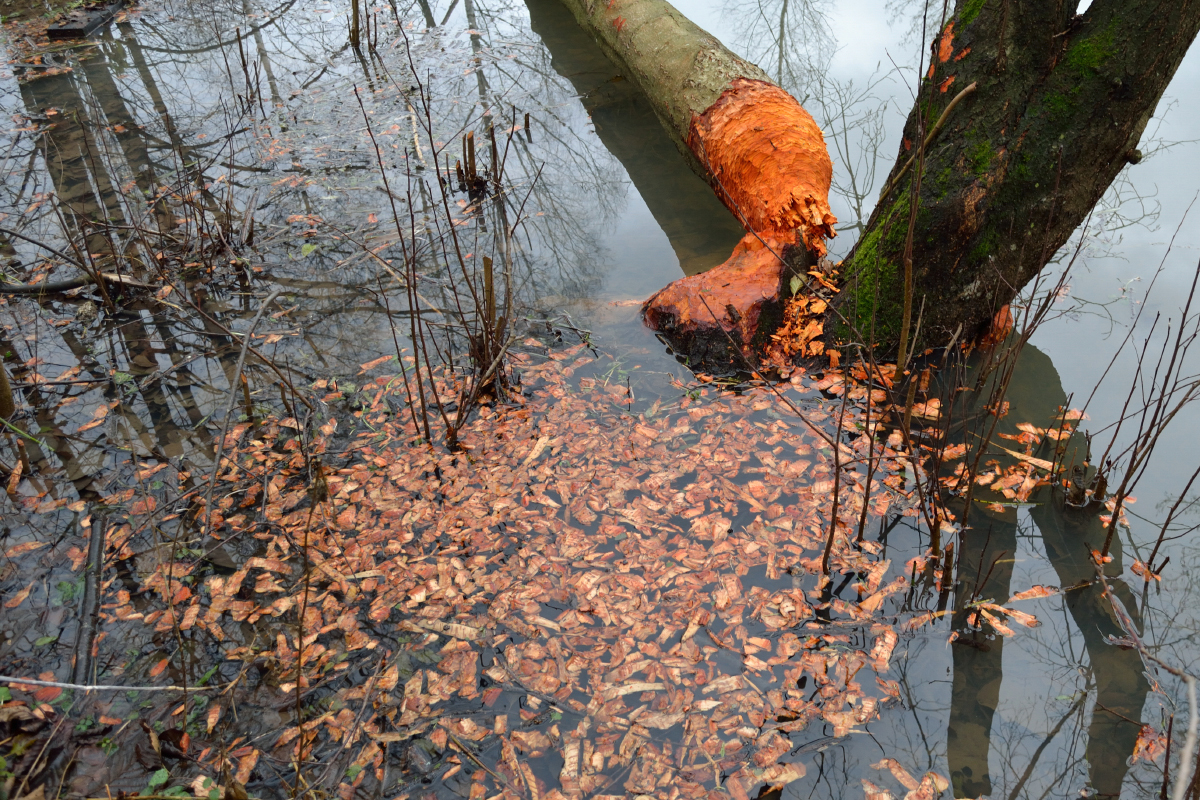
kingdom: Animalia
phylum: Chordata
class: Mammalia
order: Rodentia
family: Castoridae
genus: Castor
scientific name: Castor fiber
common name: Eurasian beaver
